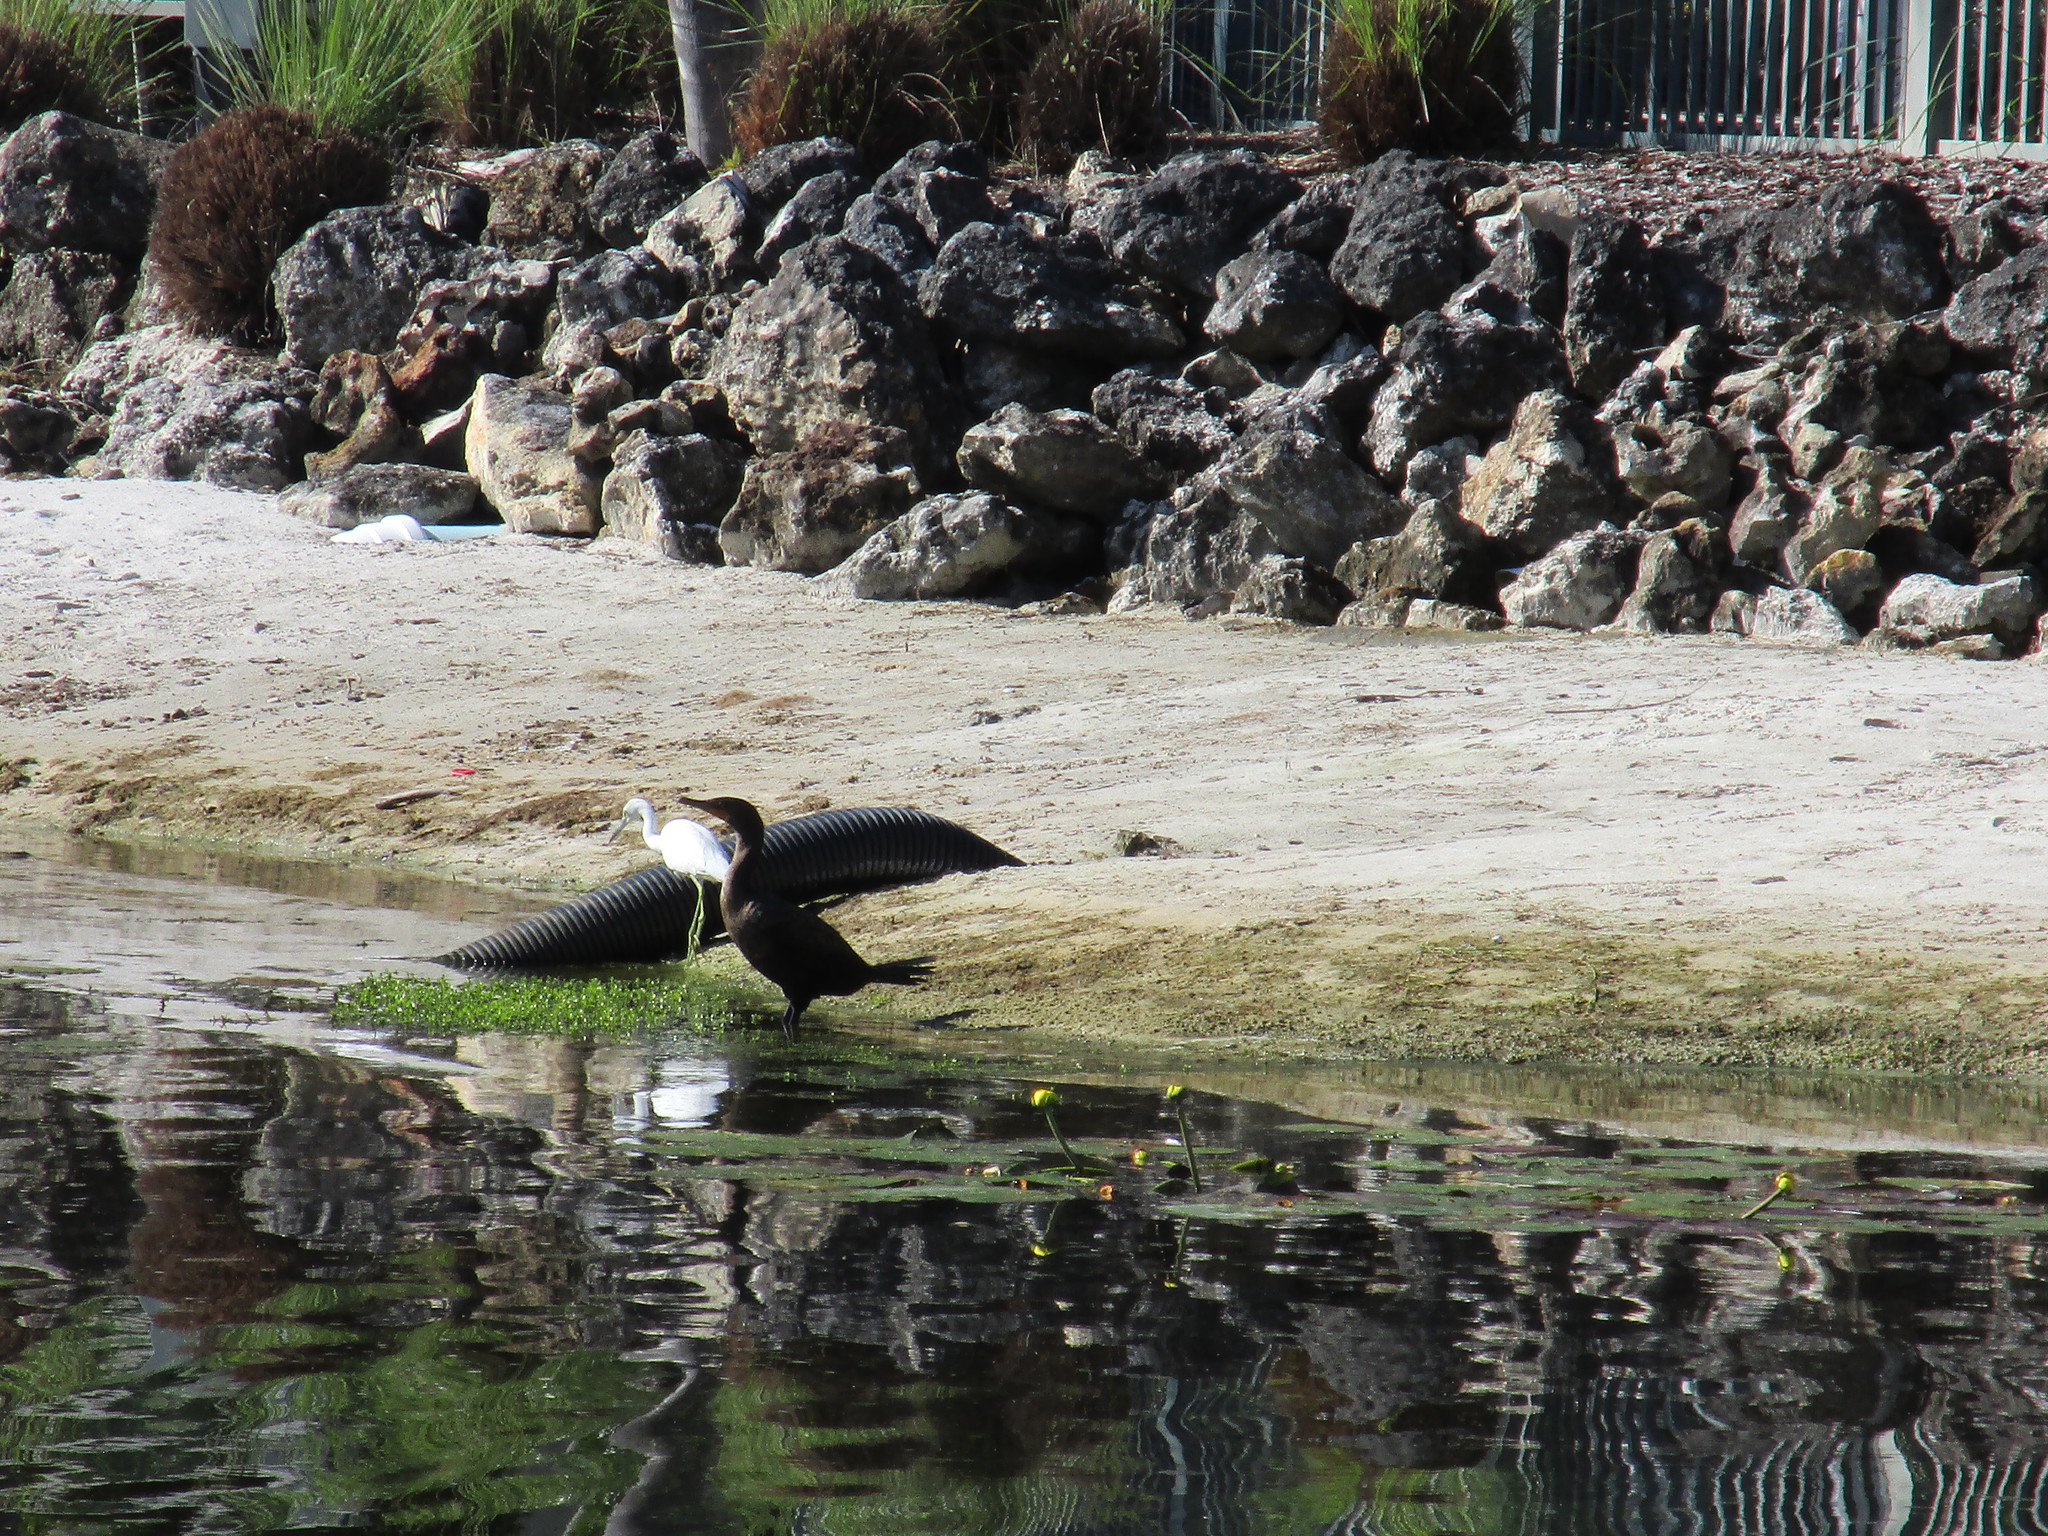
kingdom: Animalia
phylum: Chordata
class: Aves
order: Pelecaniformes
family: Ardeidae
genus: Egretta
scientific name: Egretta caerulea
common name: Little blue heron
